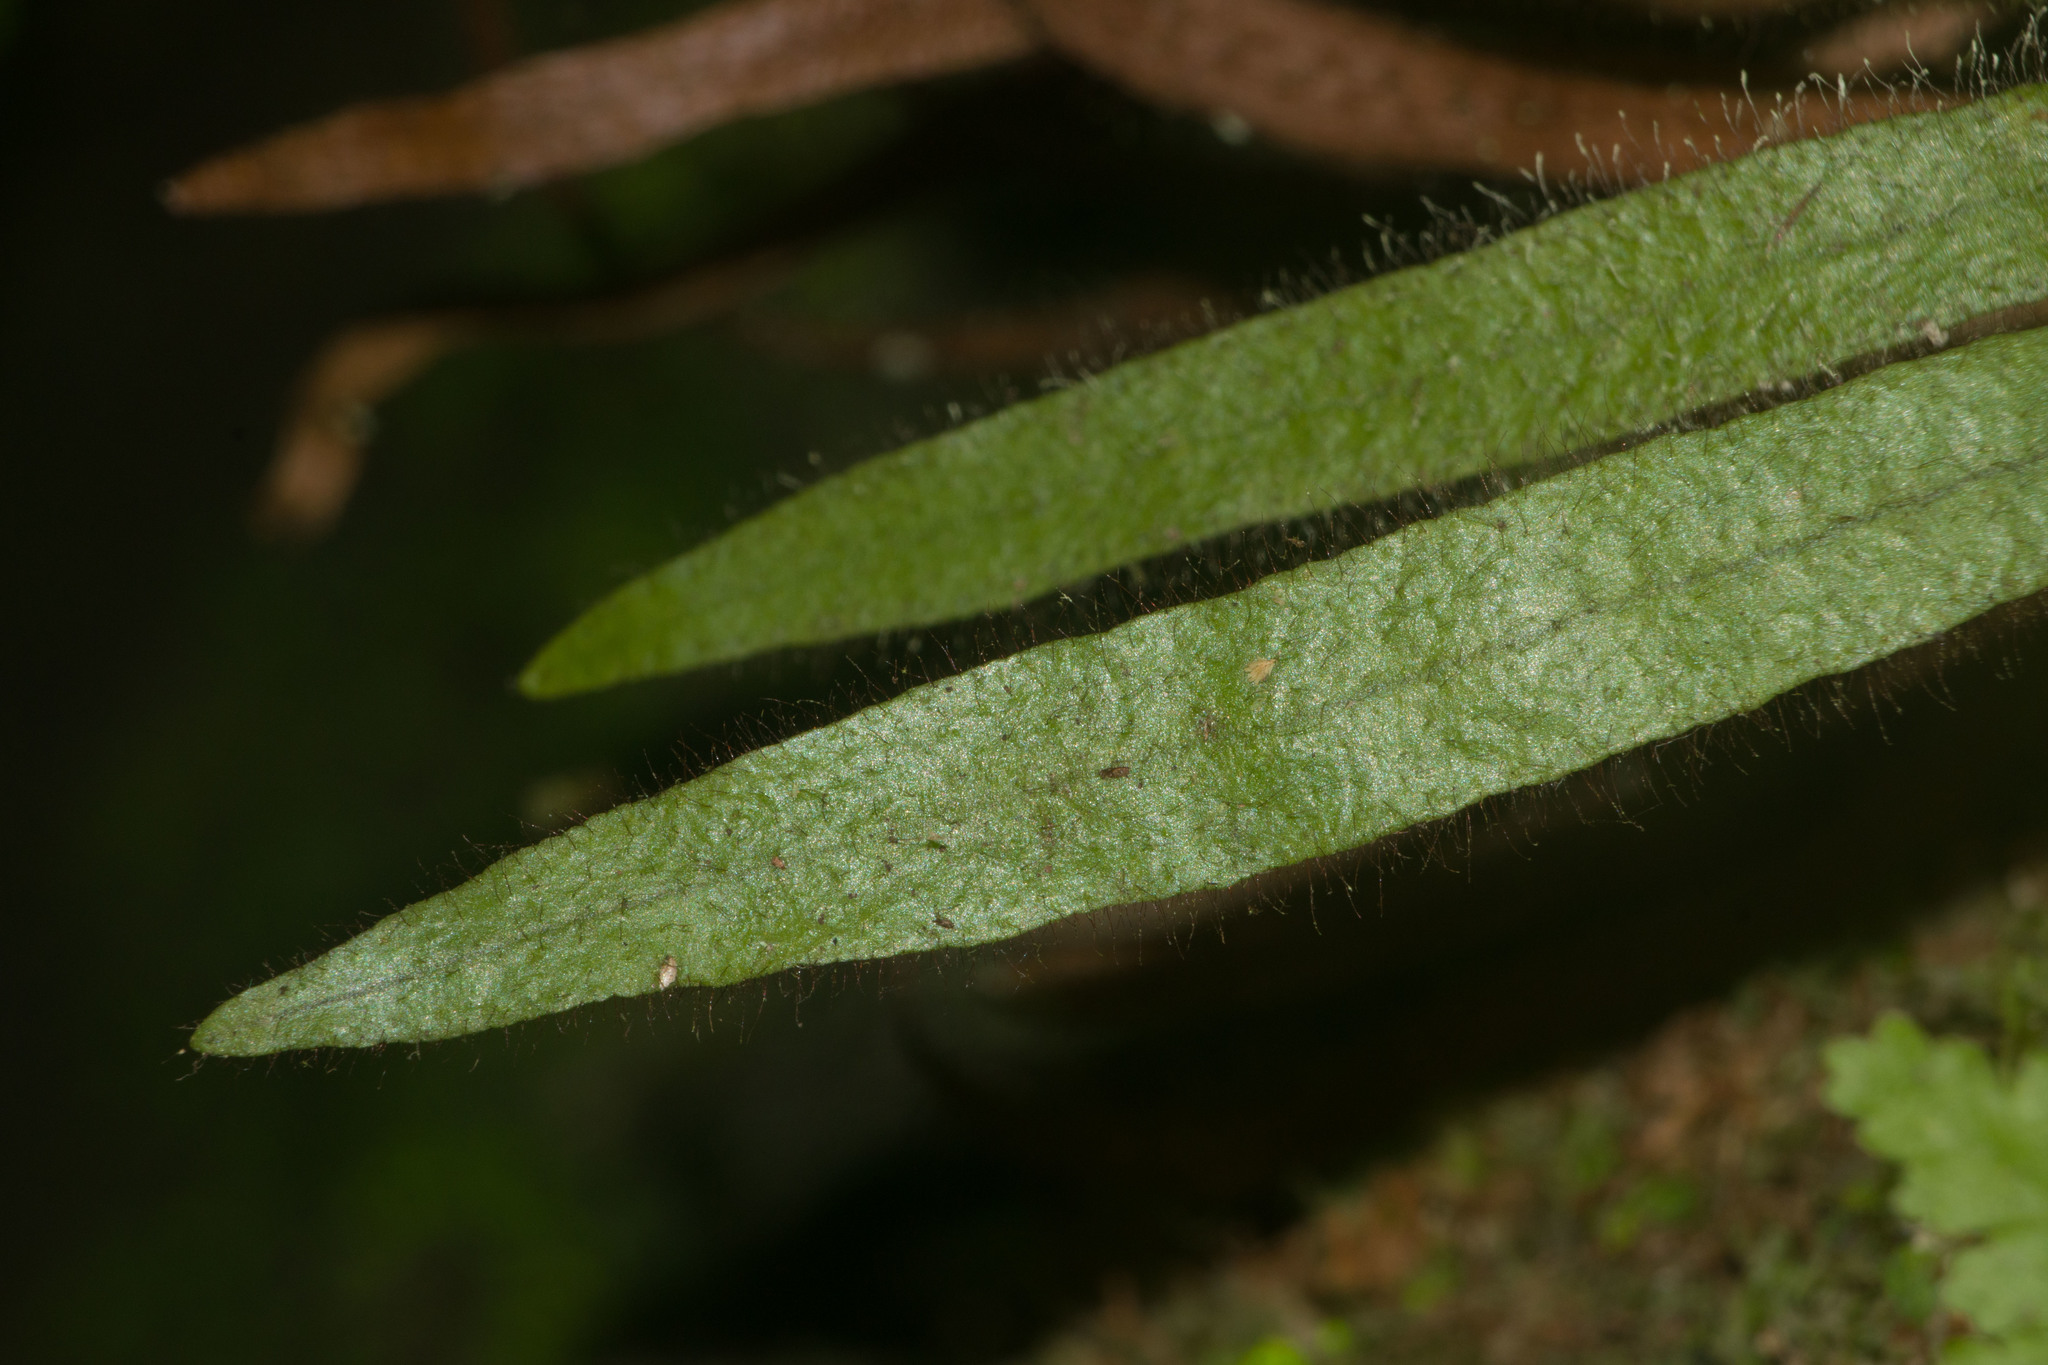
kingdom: Plantae
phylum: Tracheophyta
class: Polypodiopsida
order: Polypodiales
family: Polypodiaceae
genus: Oreogrammitis
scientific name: Oreogrammitis hookeri
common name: Hooker's dwarf polypody
